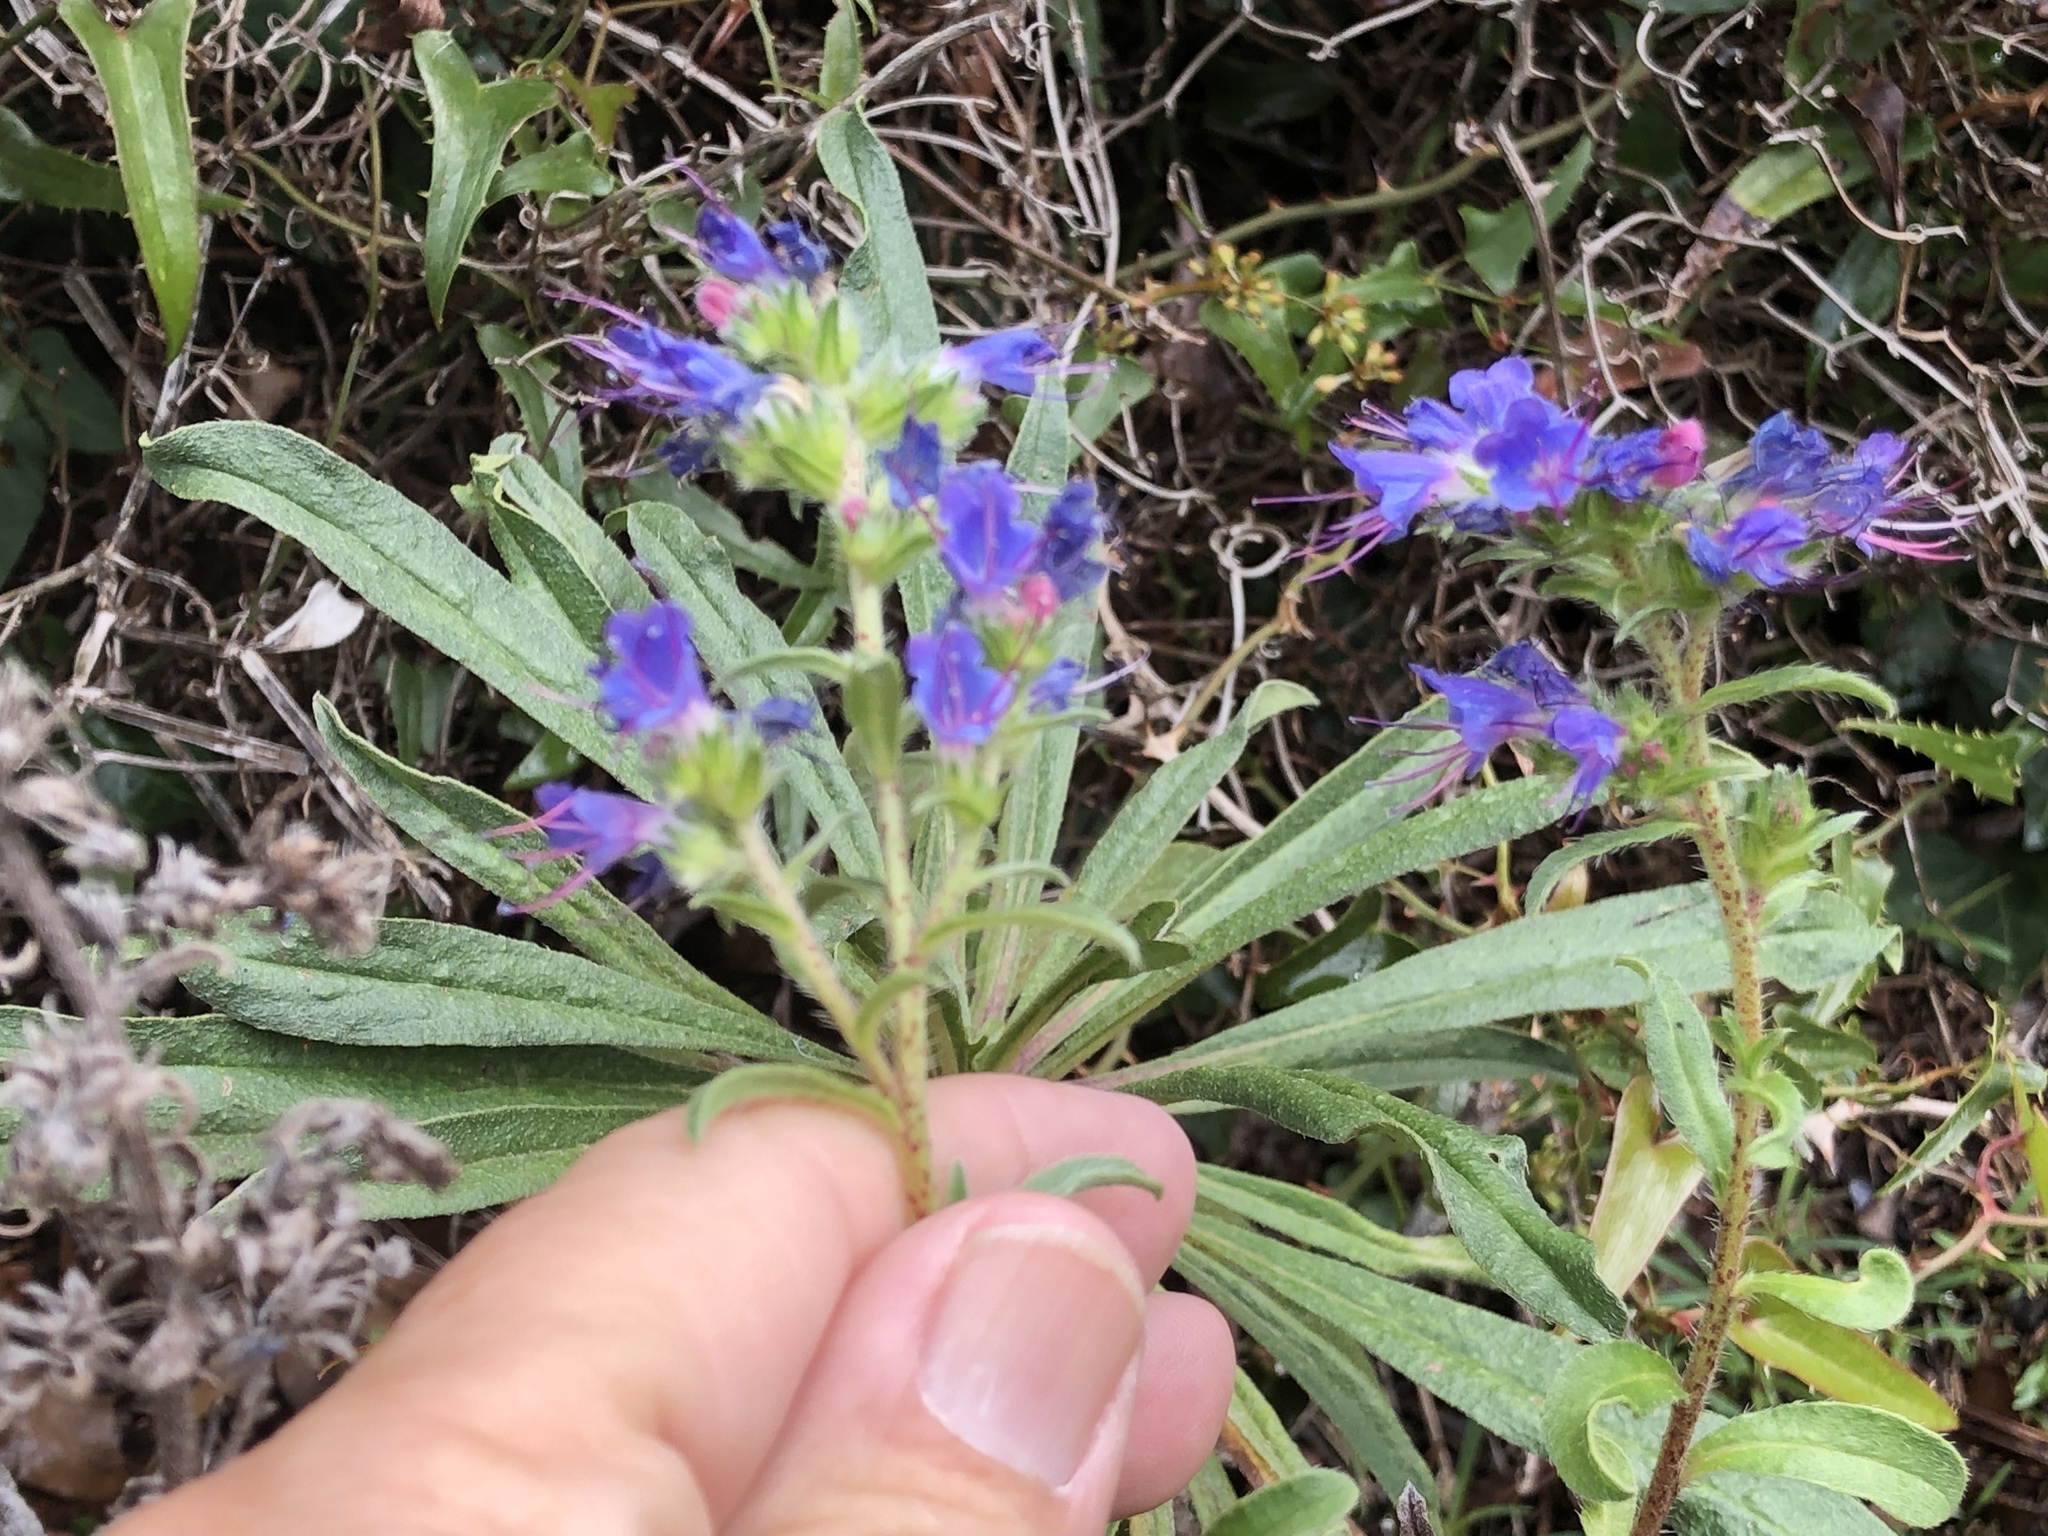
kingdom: Plantae
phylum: Tracheophyta
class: Magnoliopsida
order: Boraginales
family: Boraginaceae
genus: Echium
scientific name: Echium vulgare
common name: Common viper's bugloss
